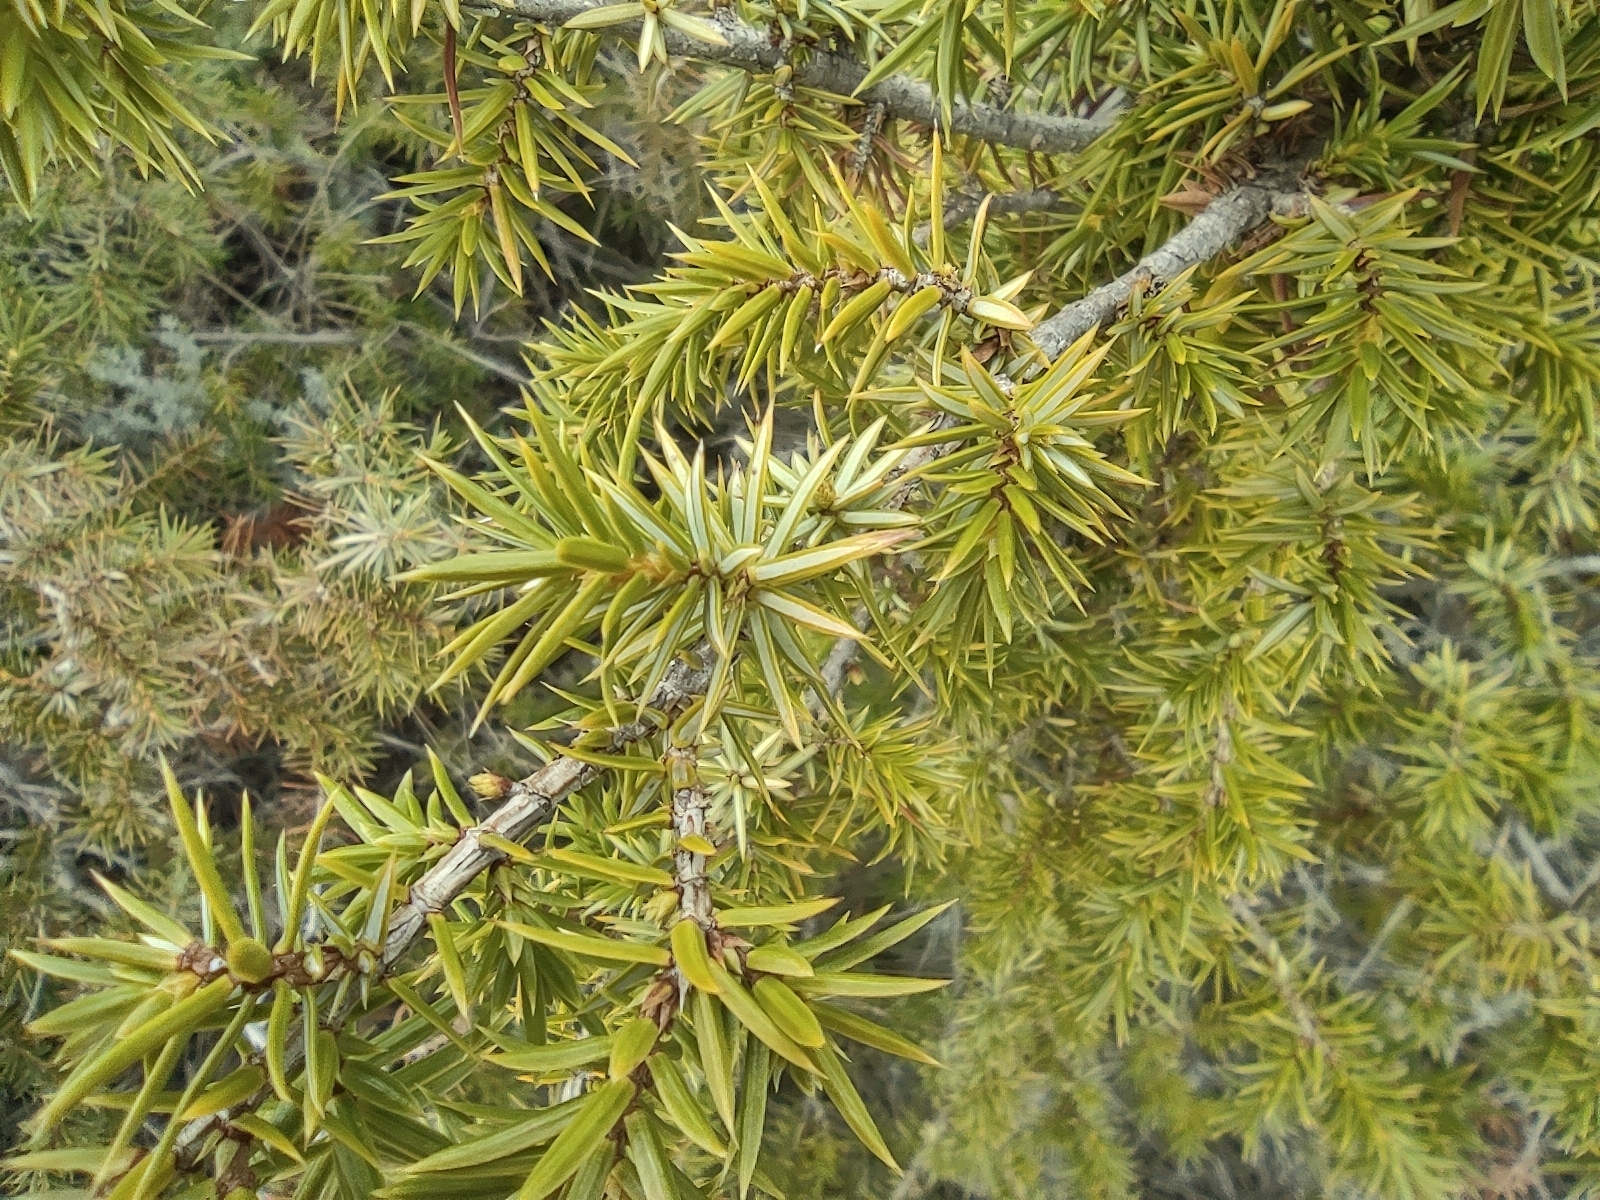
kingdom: Plantae
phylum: Tracheophyta
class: Pinopsida
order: Pinales
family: Cupressaceae
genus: Juniperus
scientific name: Juniperus communis
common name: Common juniper
